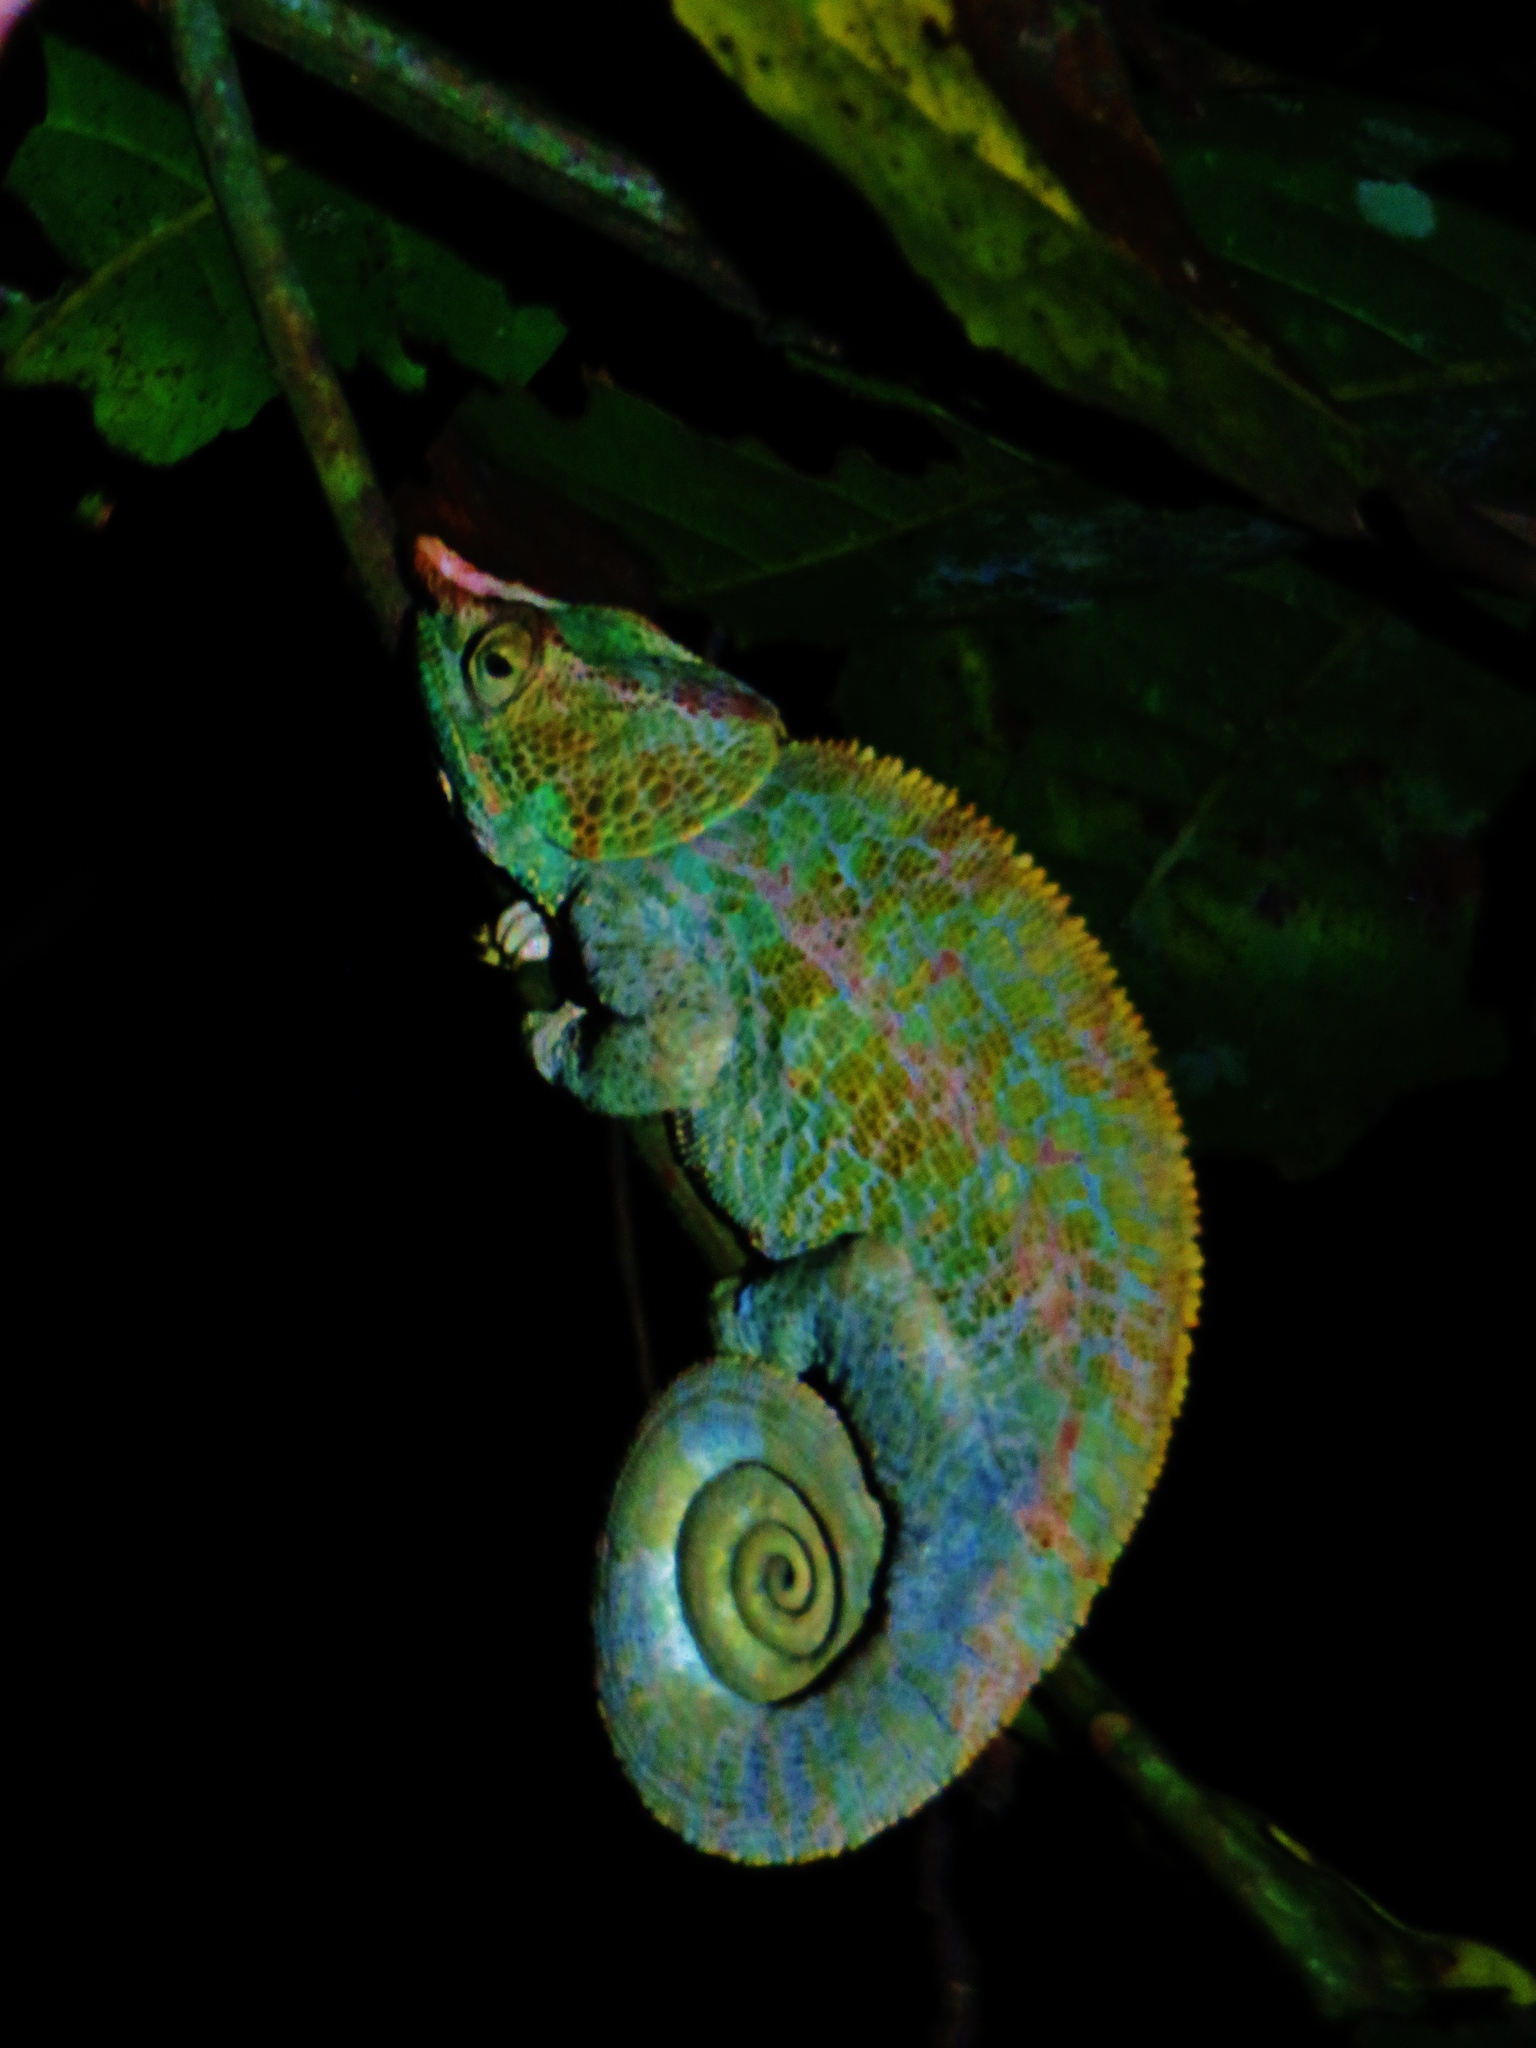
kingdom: Animalia
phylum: Chordata
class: Squamata
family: Chamaeleonidae
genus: Calumma
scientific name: Calumma crypticum
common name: Cryptic chameleon
